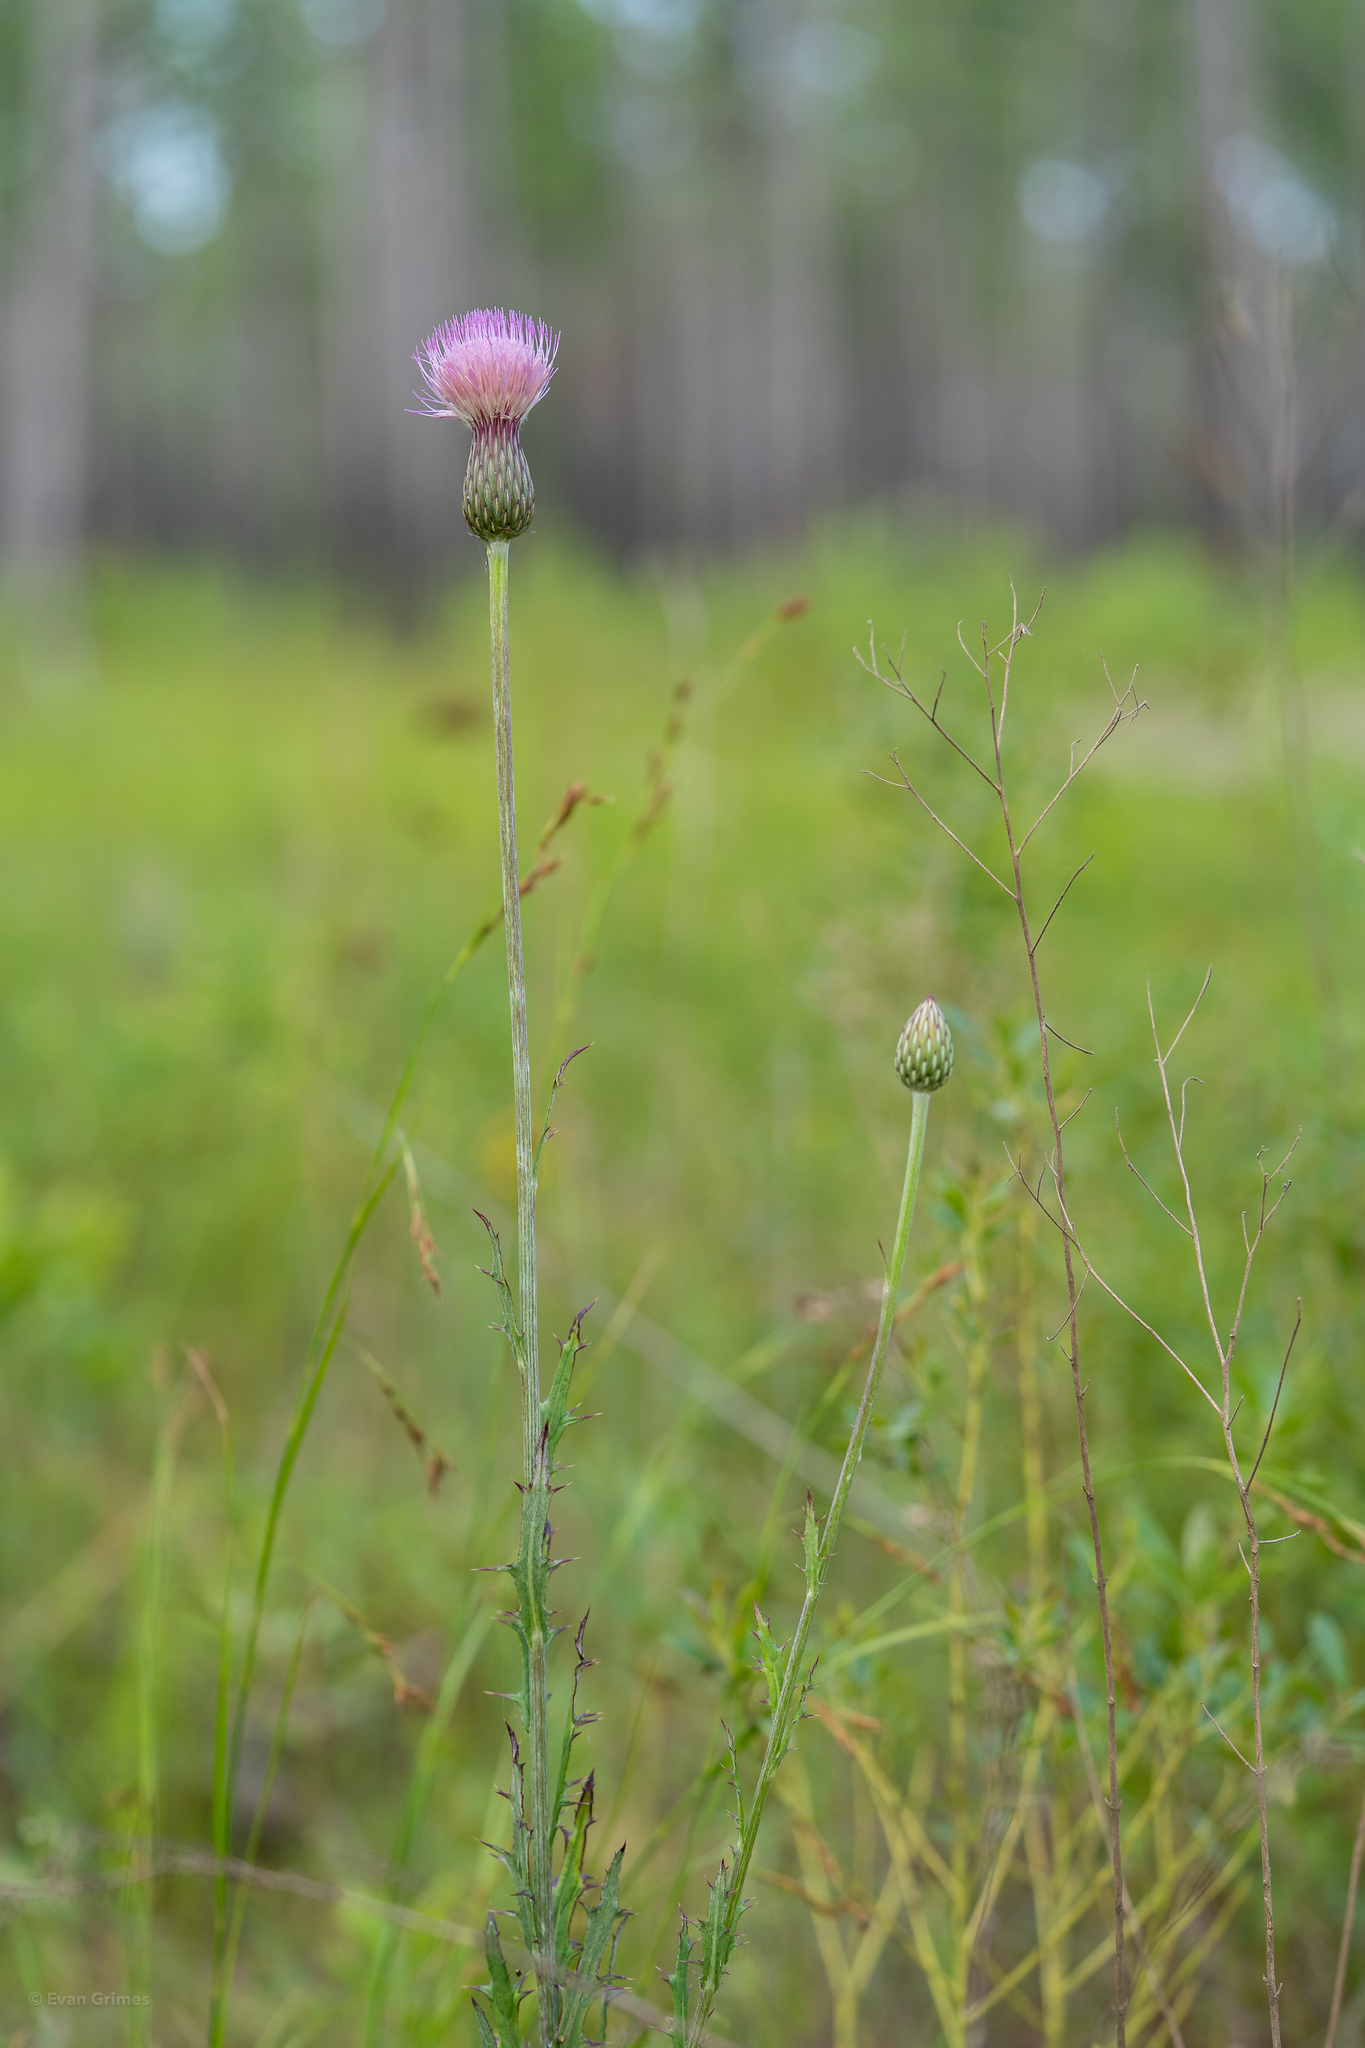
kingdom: Plantae
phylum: Tracheophyta
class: Magnoliopsida
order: Asterales
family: Asteraceae
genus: Cirsium
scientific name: Cirsium lecontei
